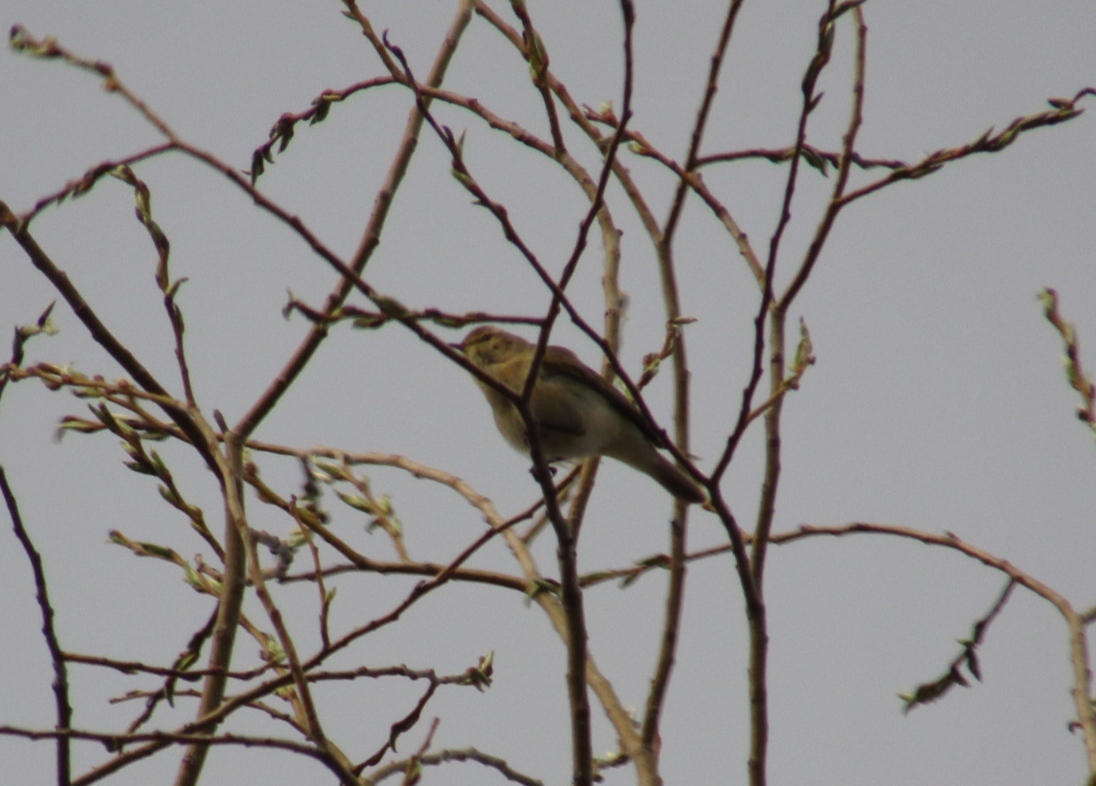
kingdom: Animalia
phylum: Chordata
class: Aves
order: Passeriformes
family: Phylloscopidae
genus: Phylloscopus
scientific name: Phylloscopus collybita
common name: Common chiffchaff
